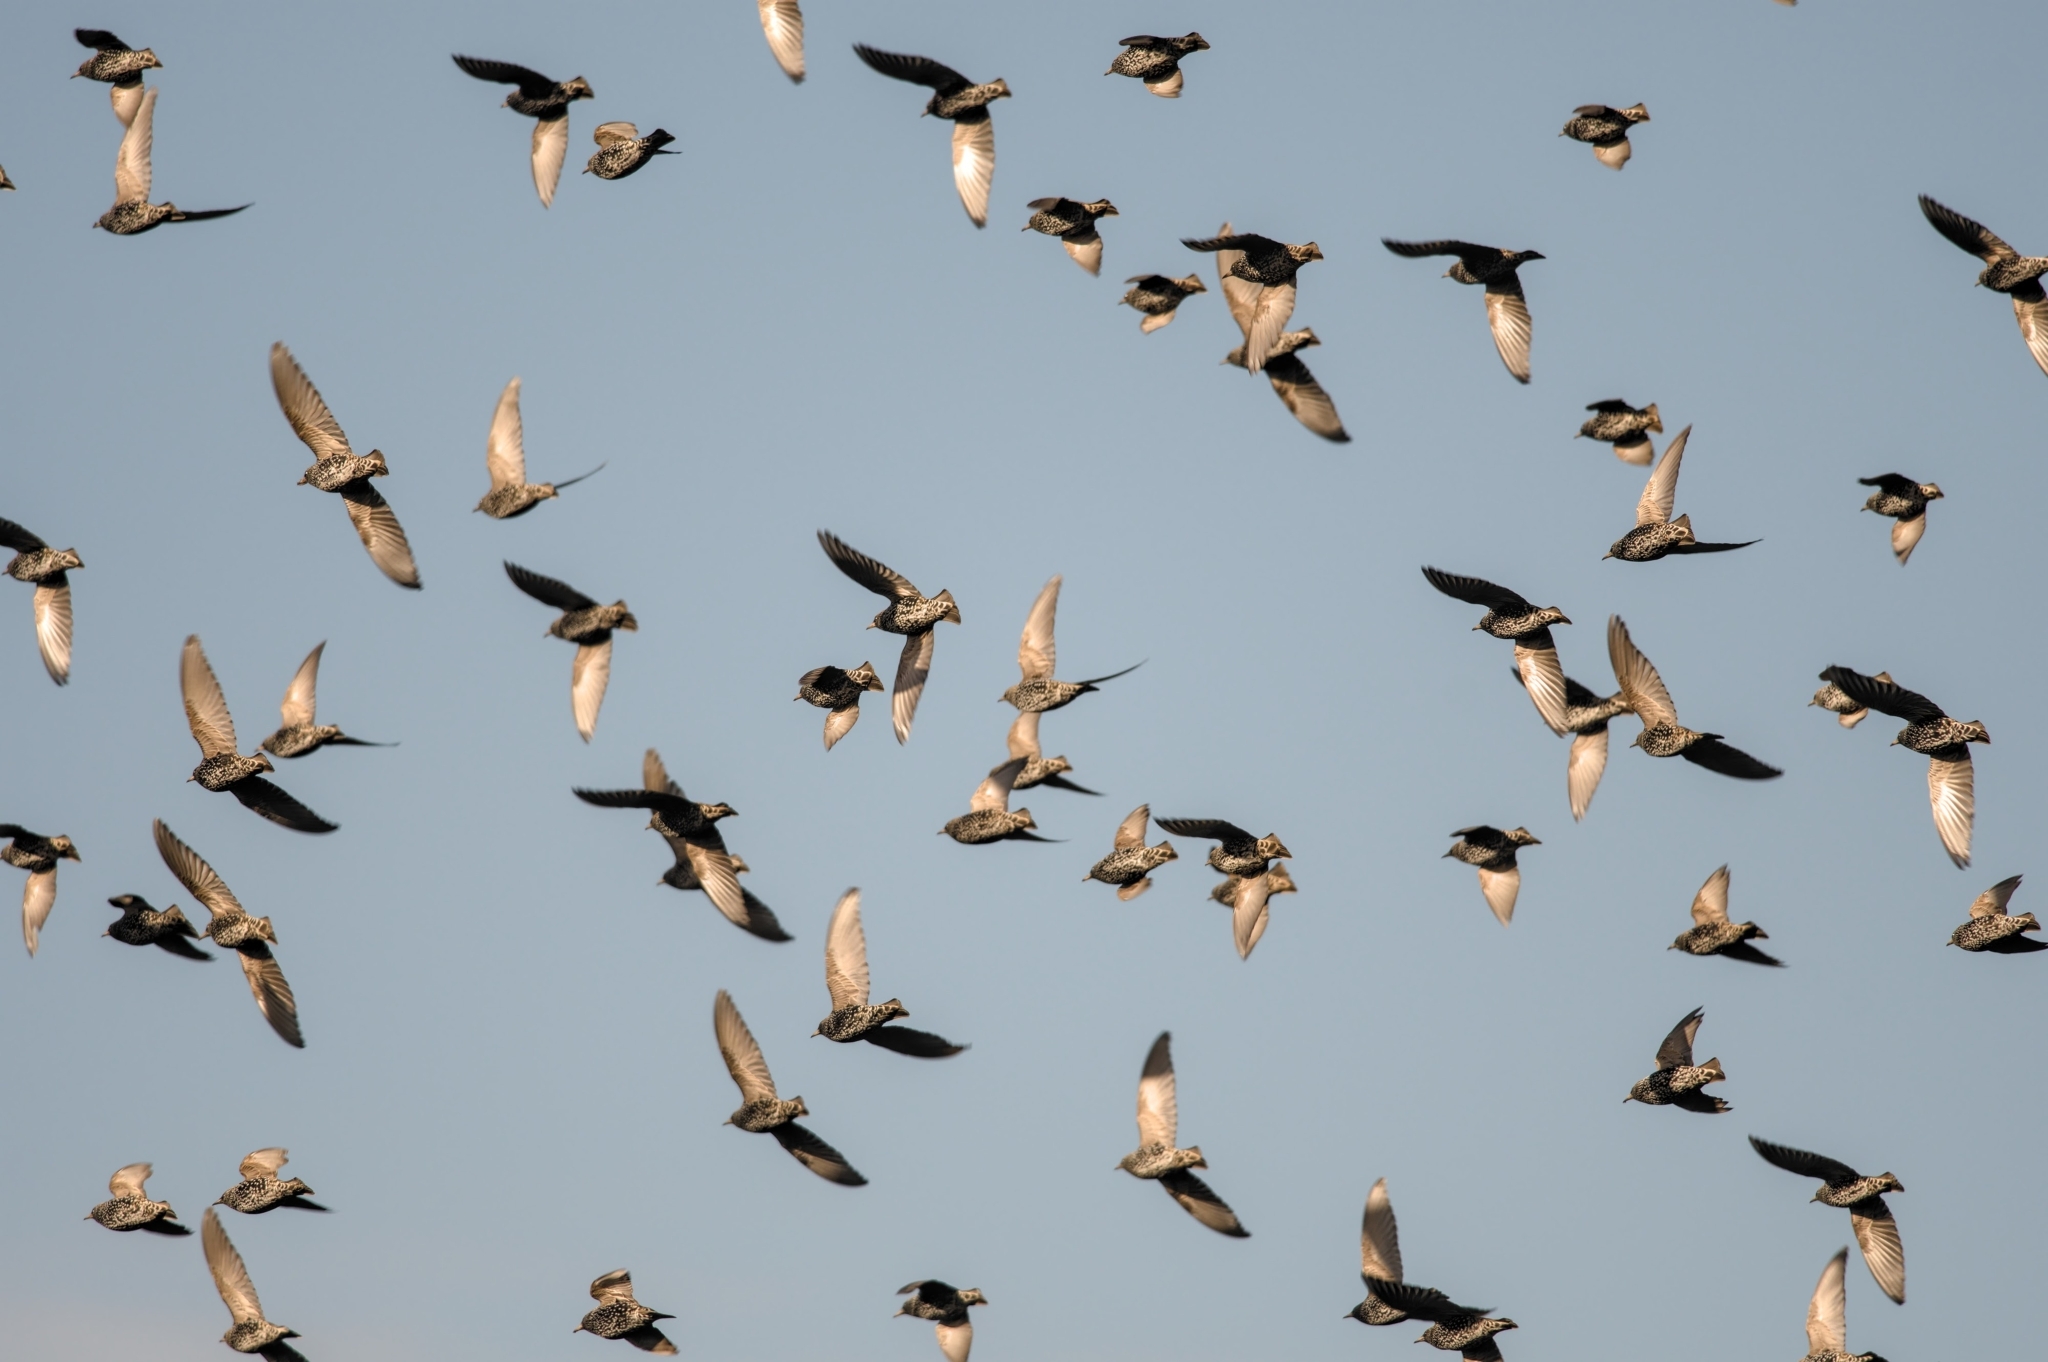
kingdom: Animalia
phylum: Chordata
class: Aves
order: Passeriformes
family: Sturnidae
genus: Sturnus
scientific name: Sturnus vulgaris
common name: Common starling
